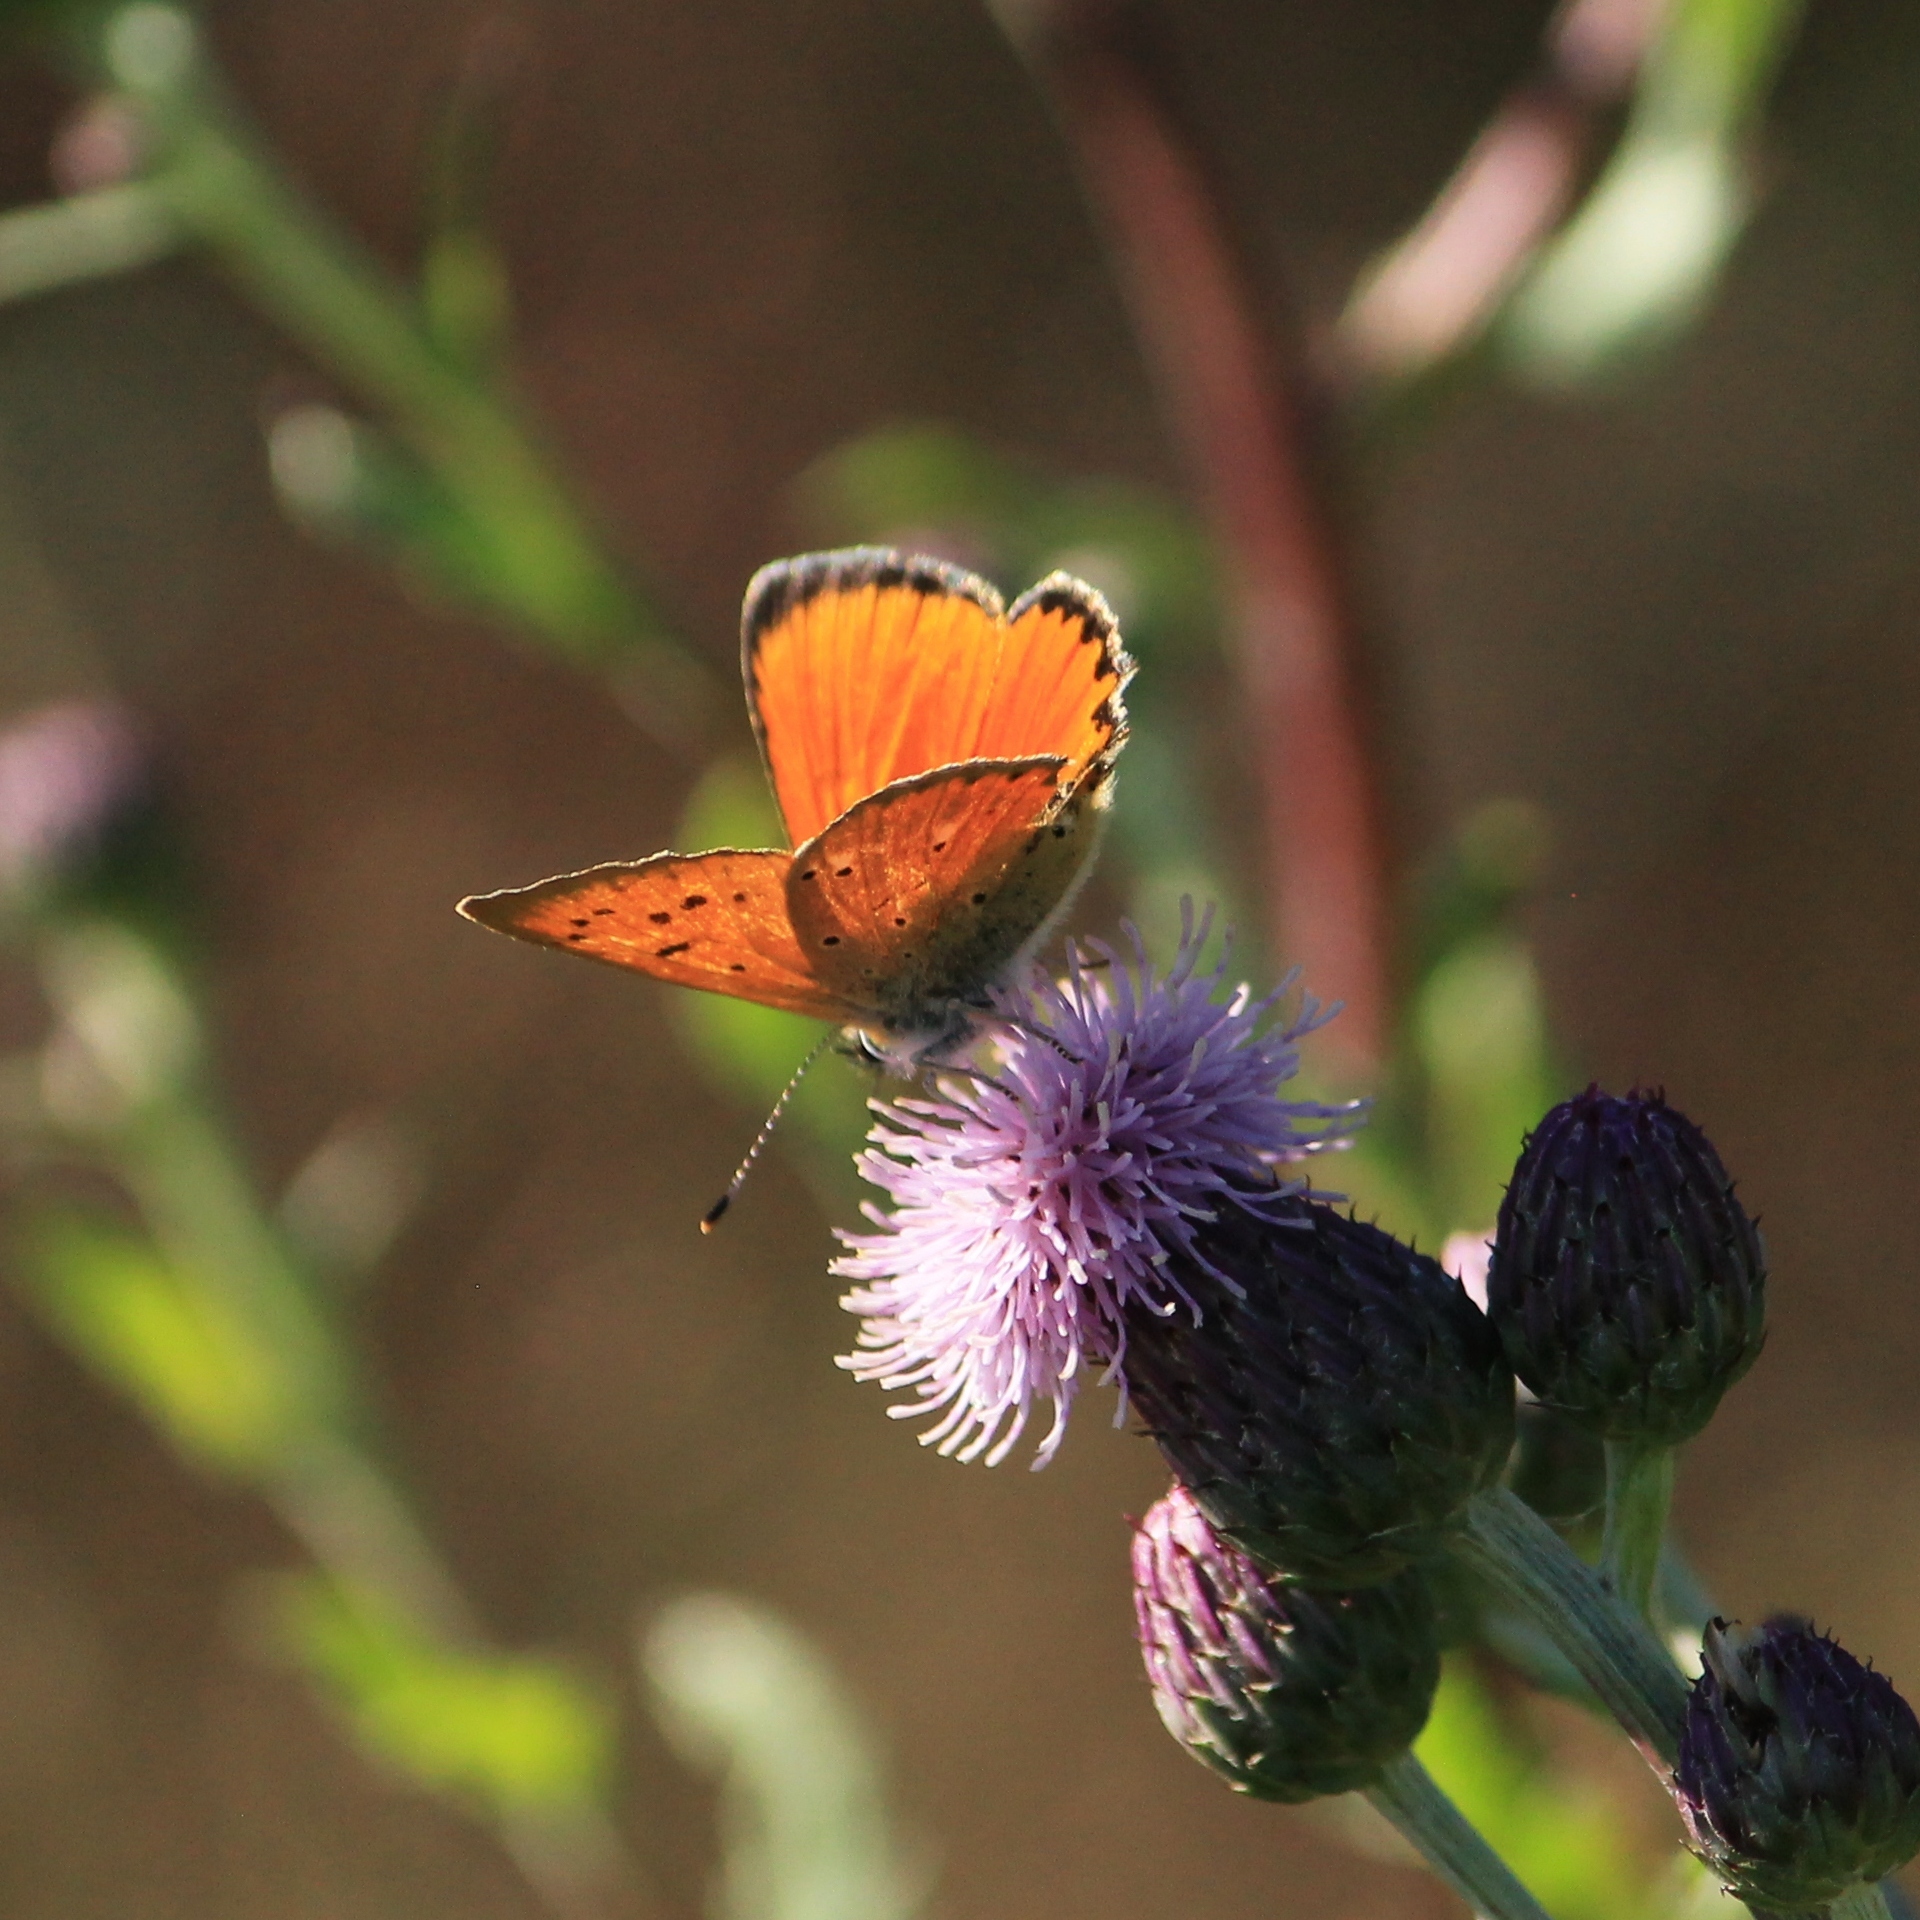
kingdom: Animalia
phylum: Arthropoda
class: Insecta
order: Lepidoptera
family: Lycaenidae
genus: Lycaena
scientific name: Lycaena virgaureae
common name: Scarce copper
